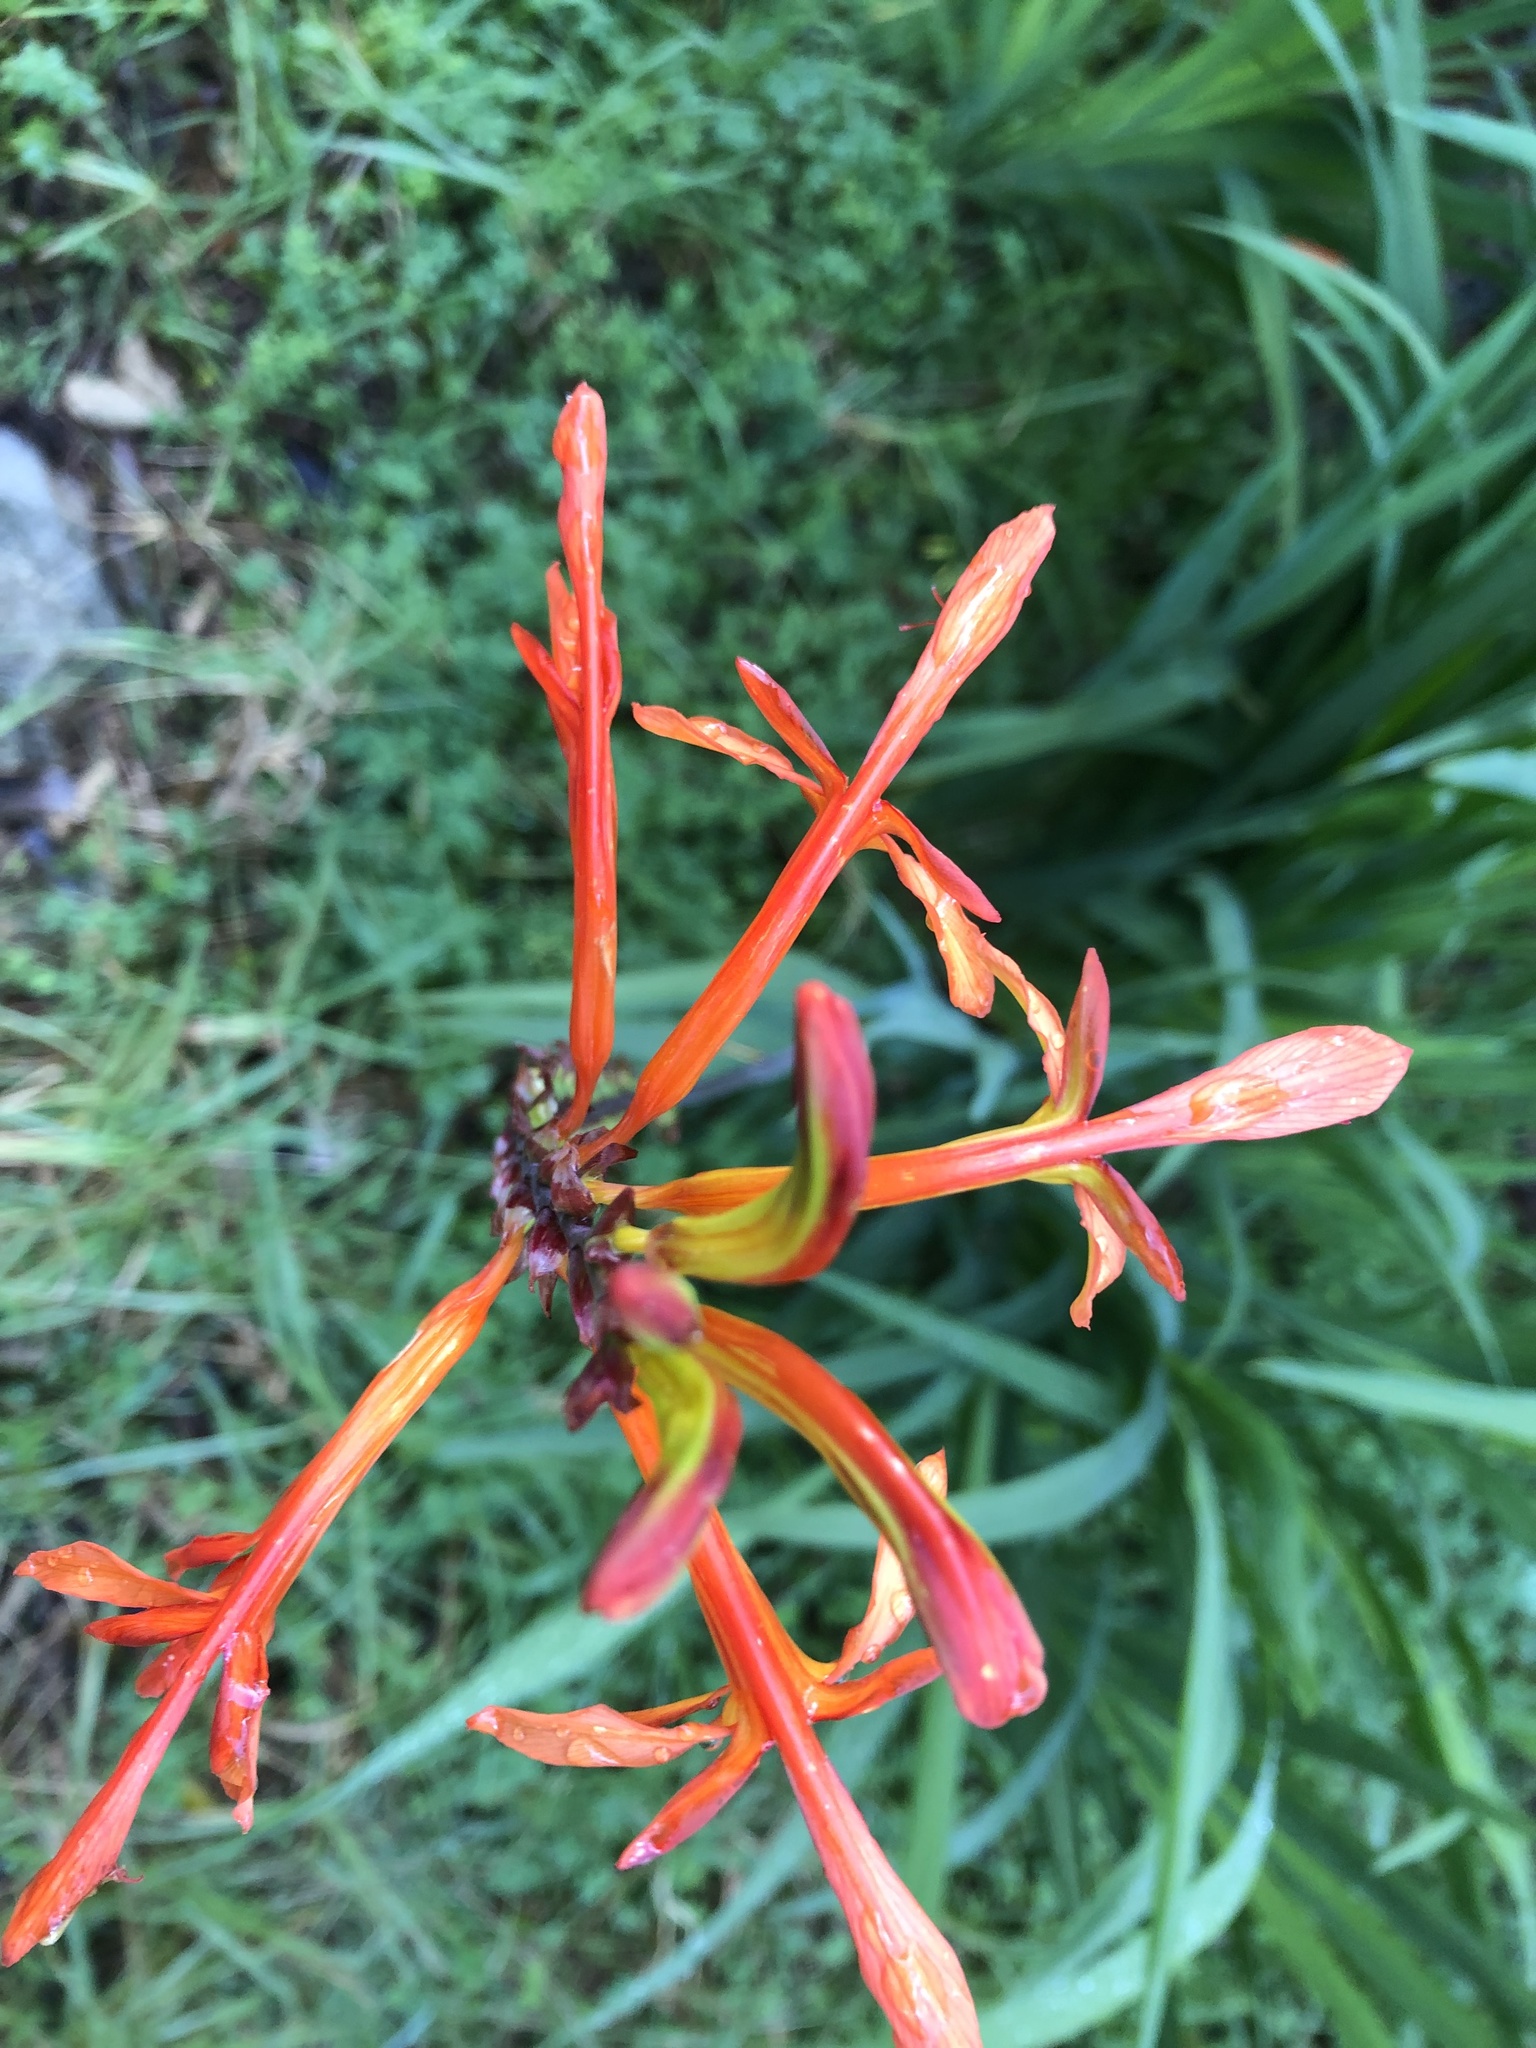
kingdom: Plantae
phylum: Tracheophyta
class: Liliopsida
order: Asparagales
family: Iridaceae
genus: Chasmanthe
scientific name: Chasmanthe floribunda
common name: African cornflag
